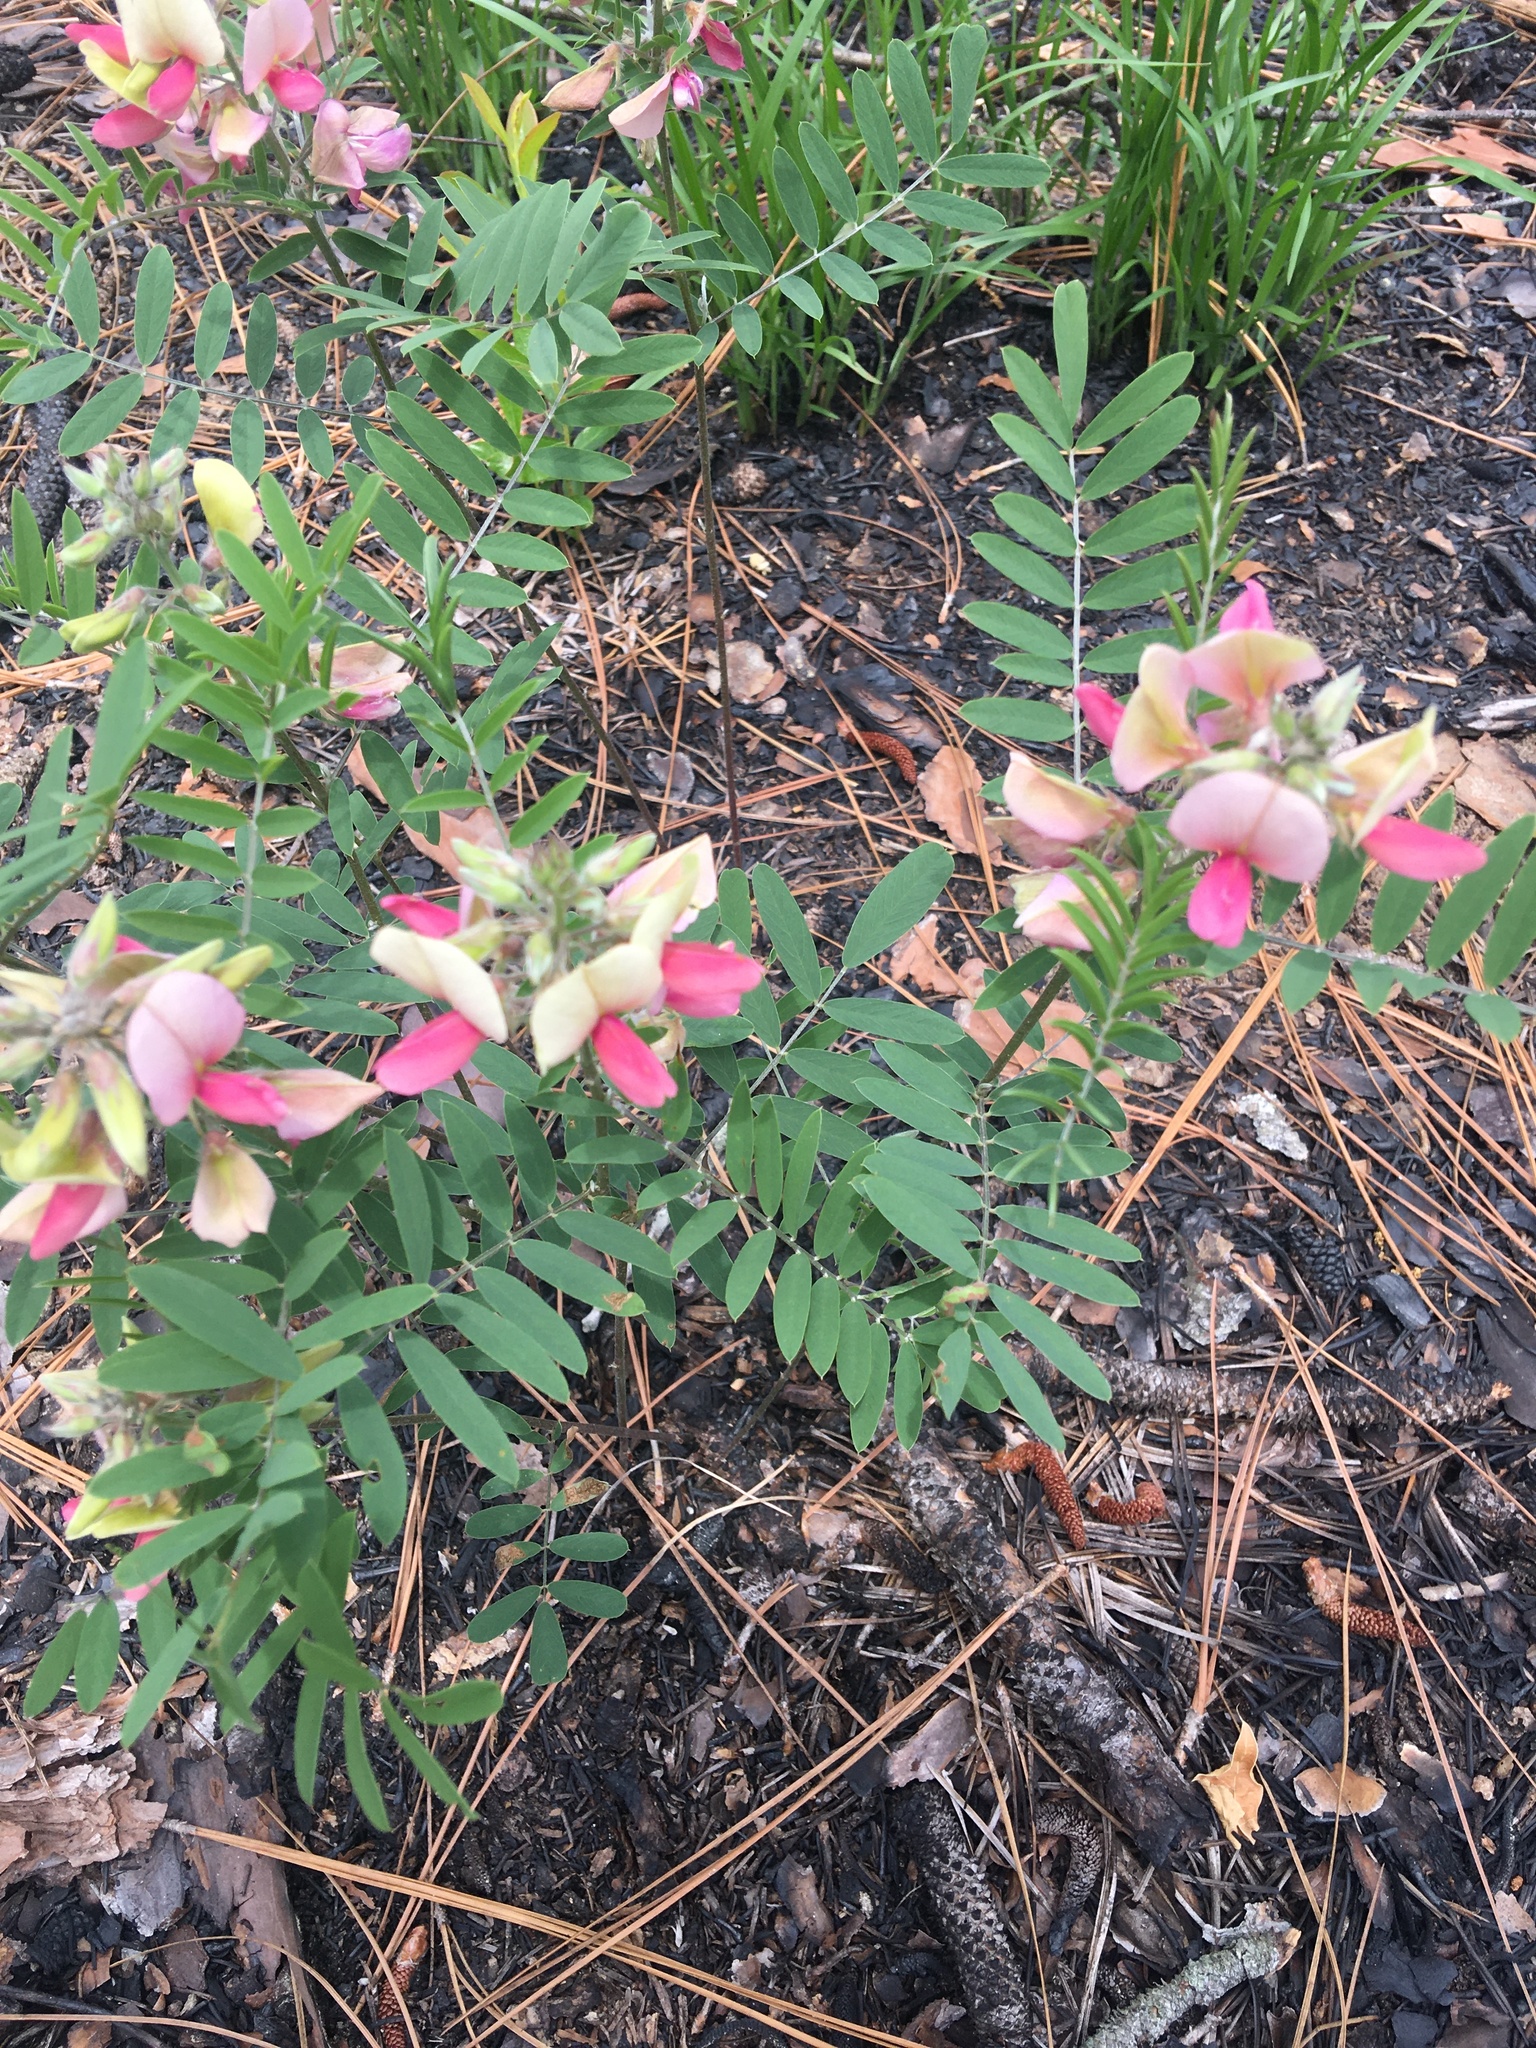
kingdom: Plantae
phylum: Tracheophyta
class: Magnoliopsida
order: Fabales
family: Fabaceae
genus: Tephrosia
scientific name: Tephrosia virginiana
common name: Rabbit-pea
